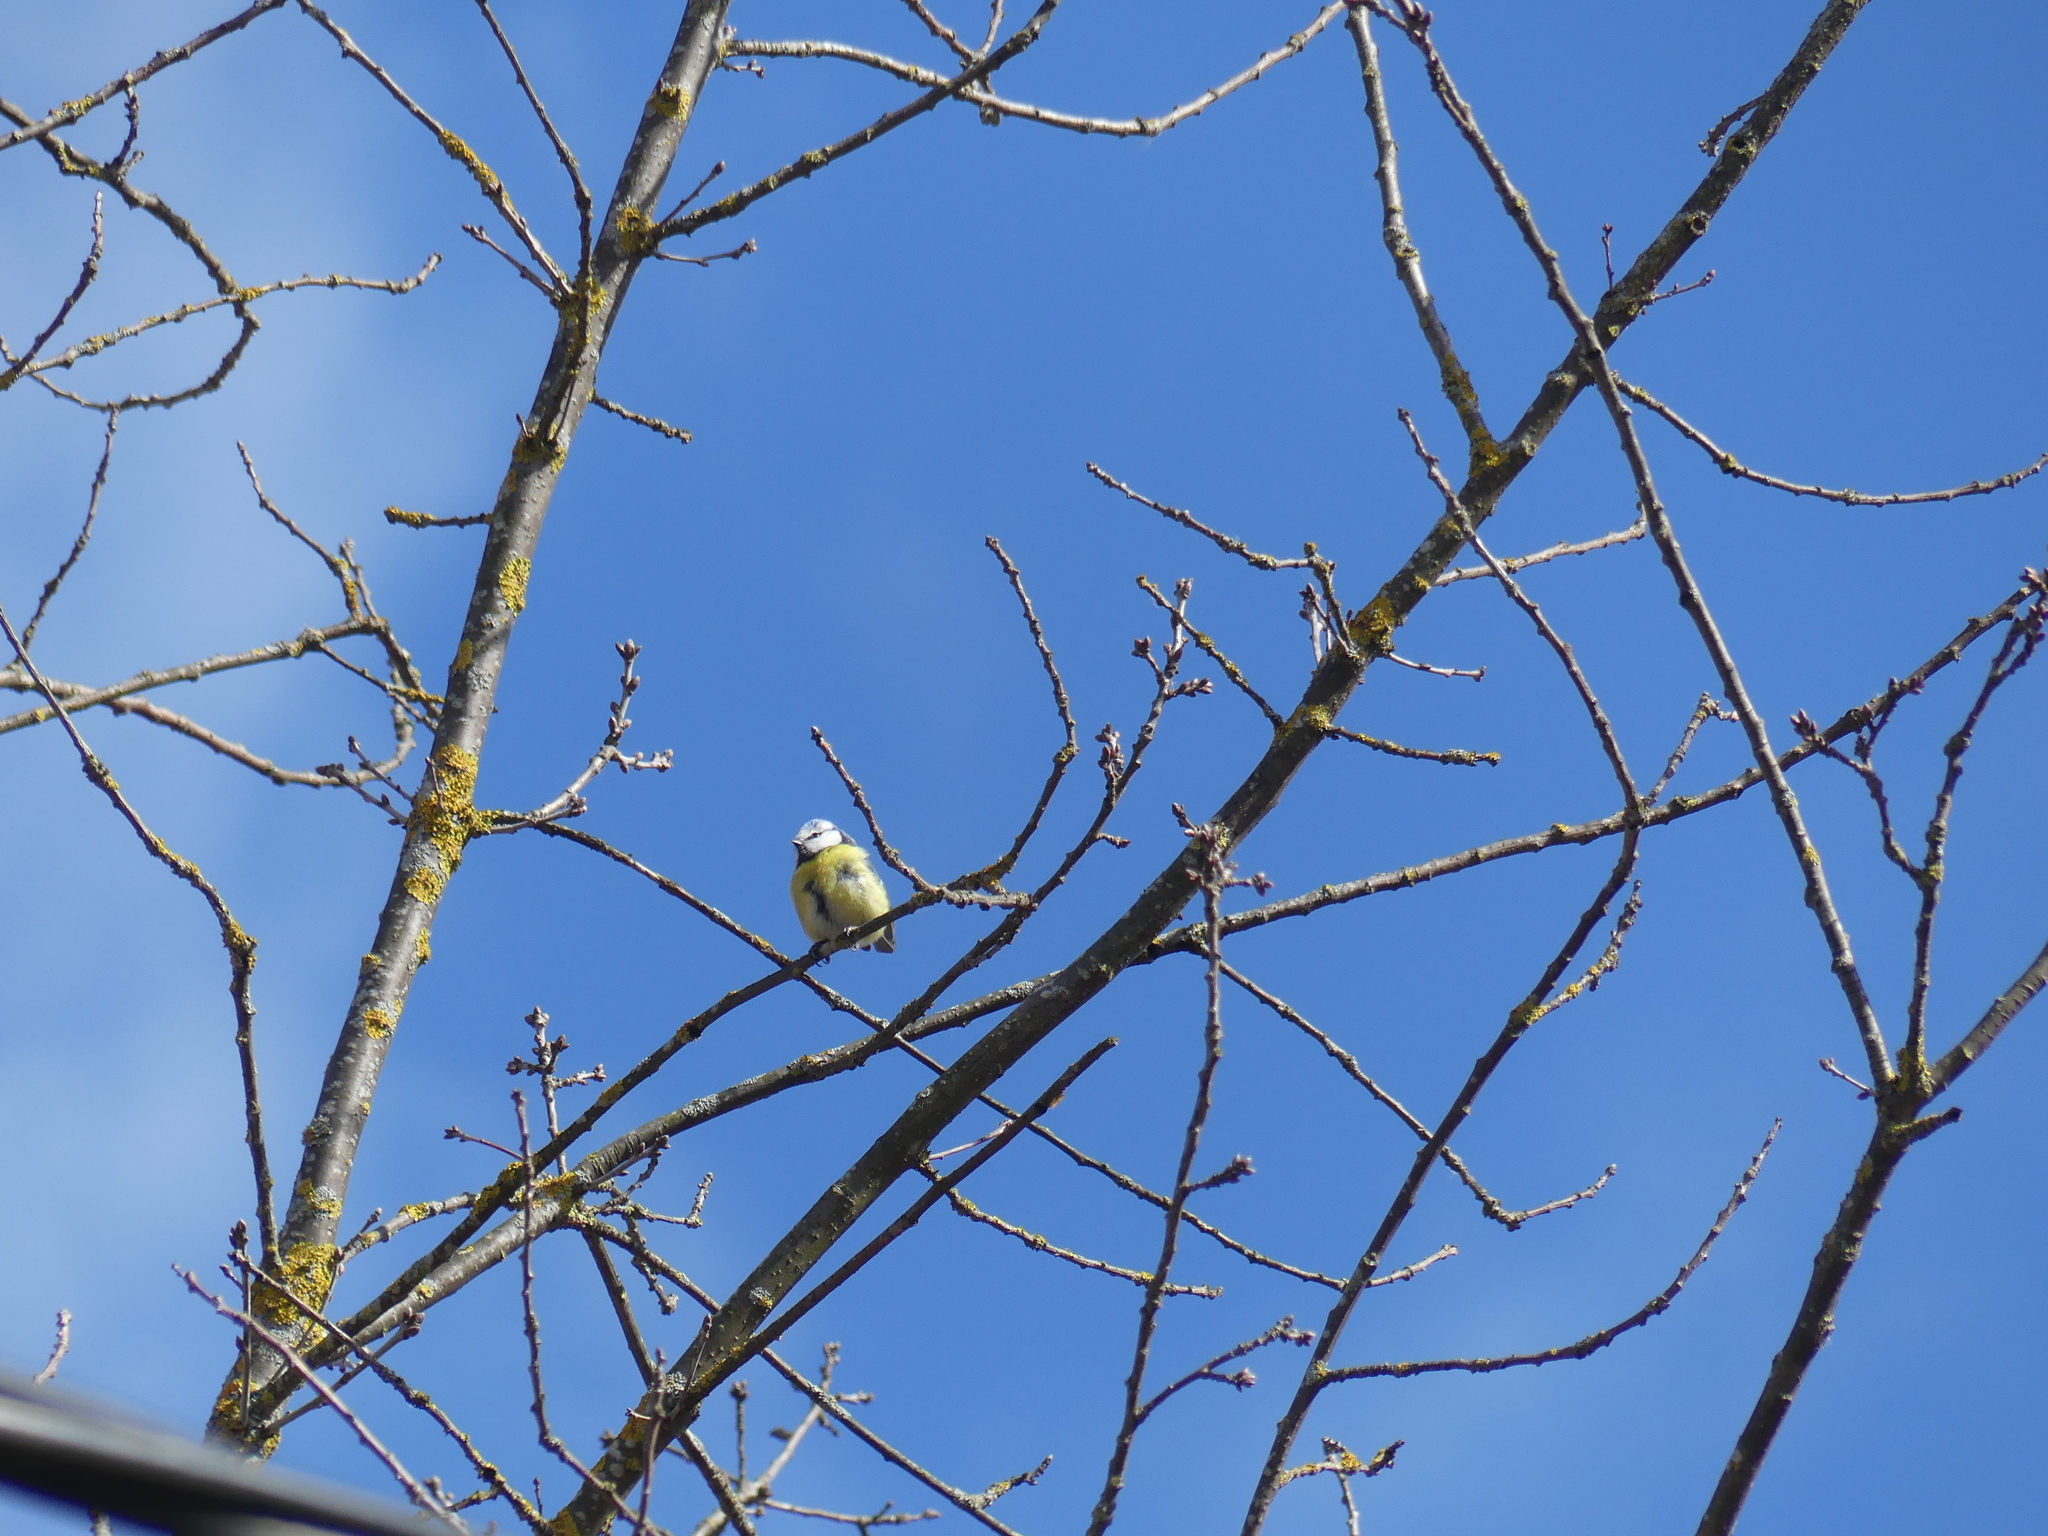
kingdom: Animalia
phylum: Chordata
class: Aves
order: Passeriformes
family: Paridae
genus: Cyanistes
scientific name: Cyanistes caeruleus
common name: Eurasian blue tit
